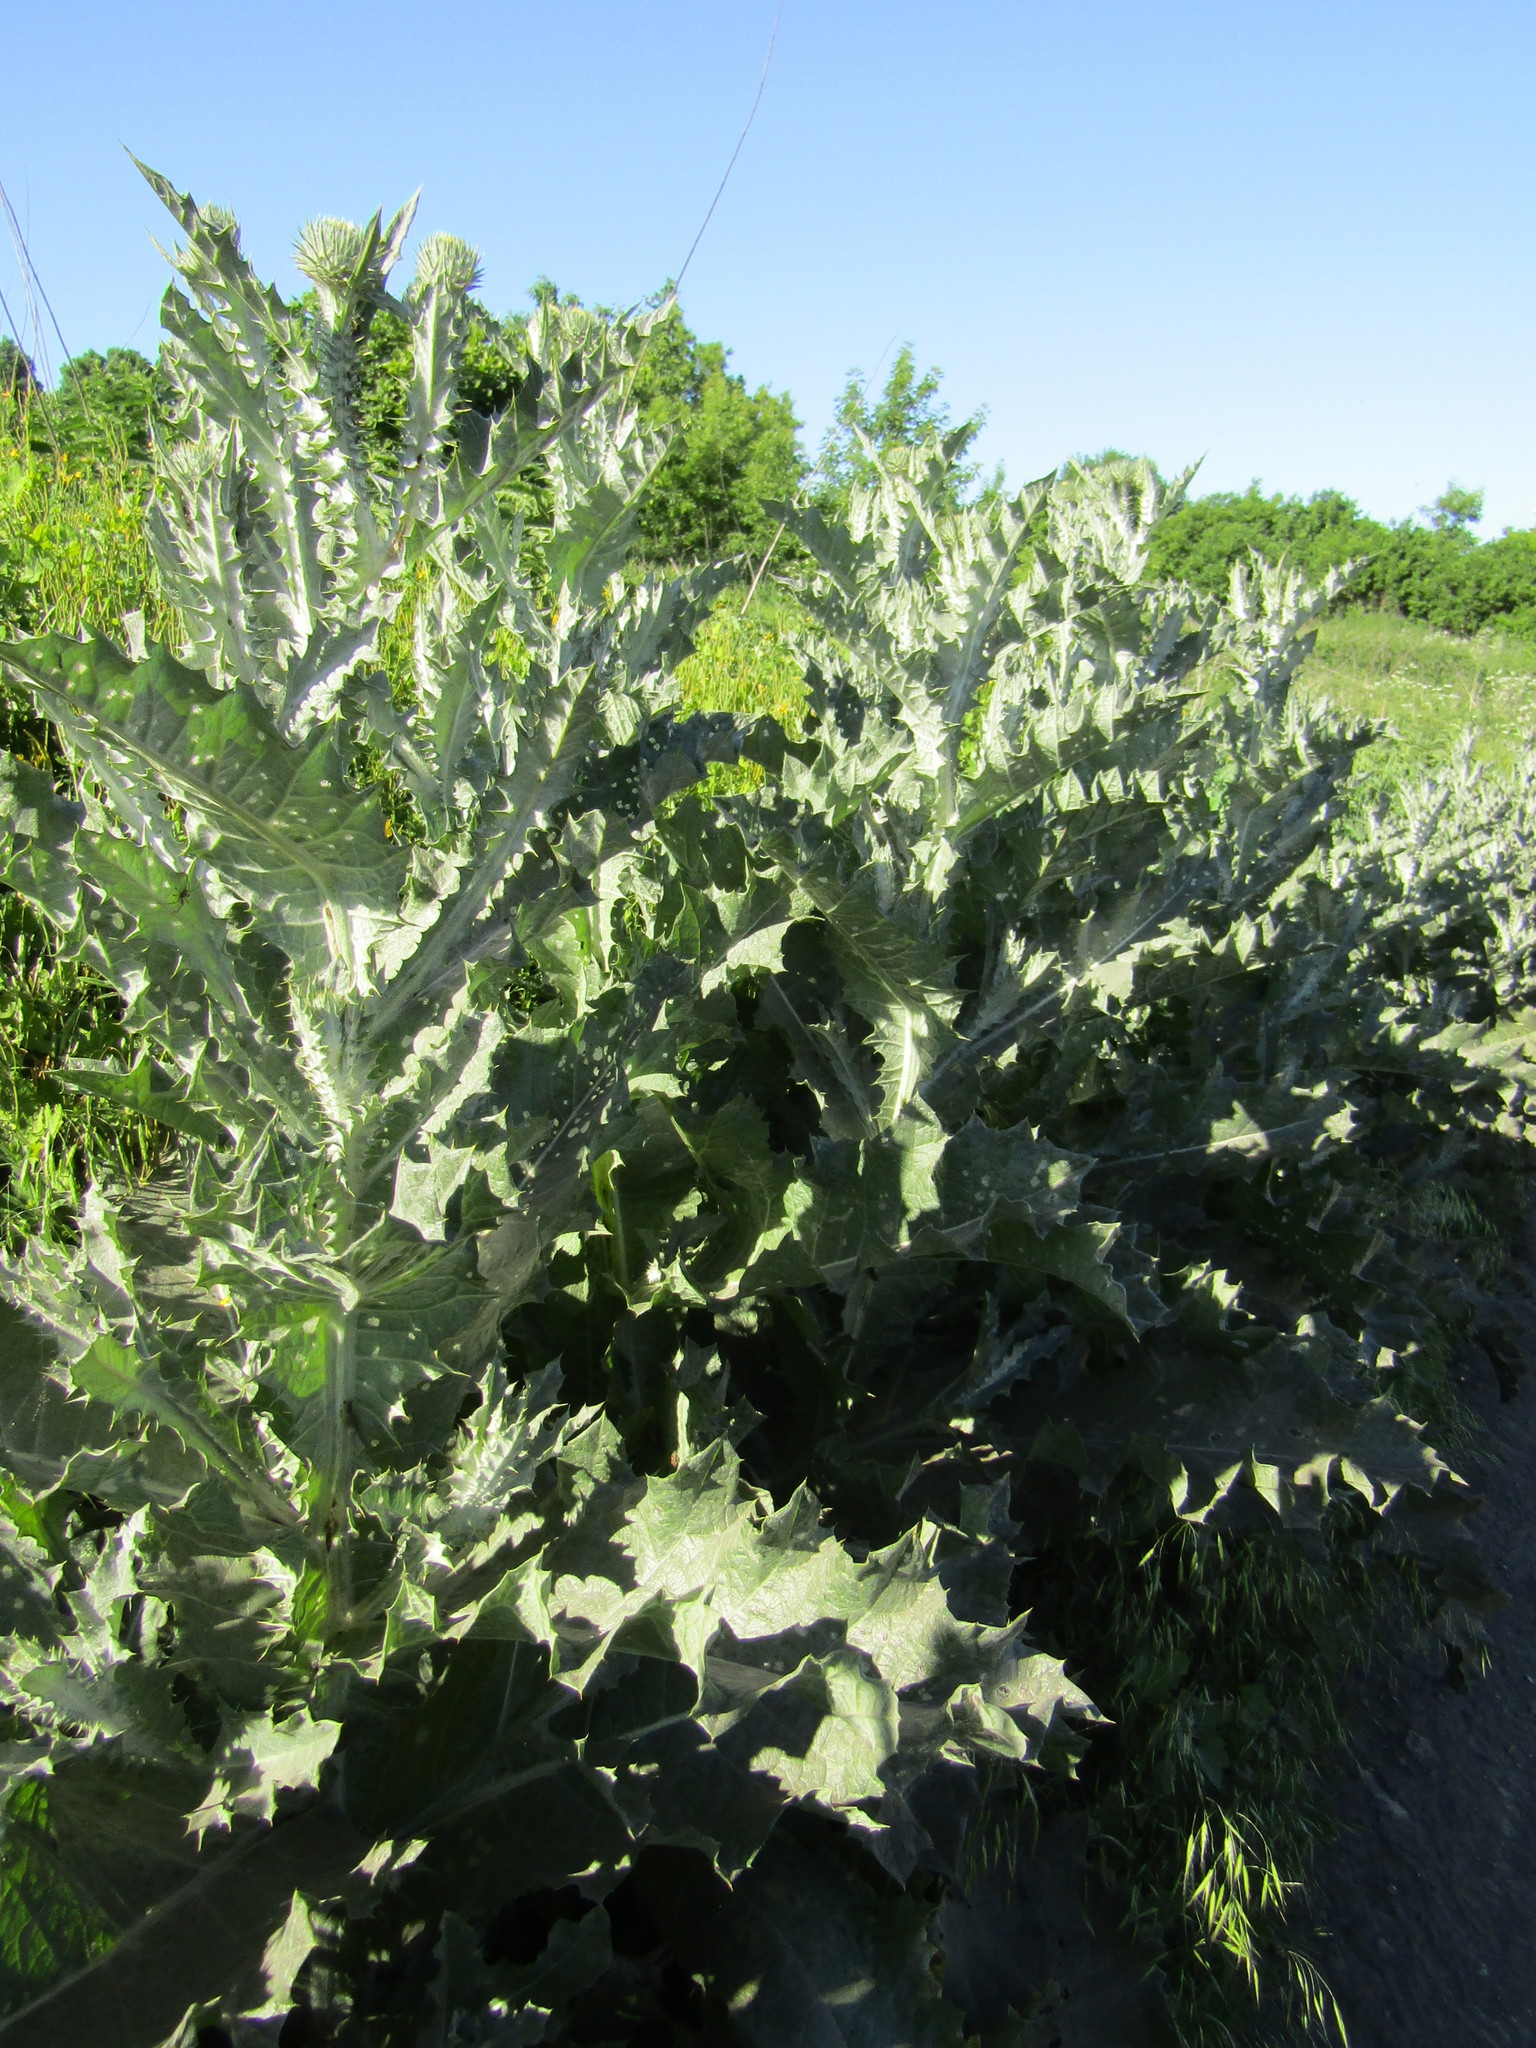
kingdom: Plantae
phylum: Tracheophyta
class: Magnoliopsida
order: Asterales
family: Asteraceae
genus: Onopordum
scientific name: Onopordum acanthium
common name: Scotch thistle
